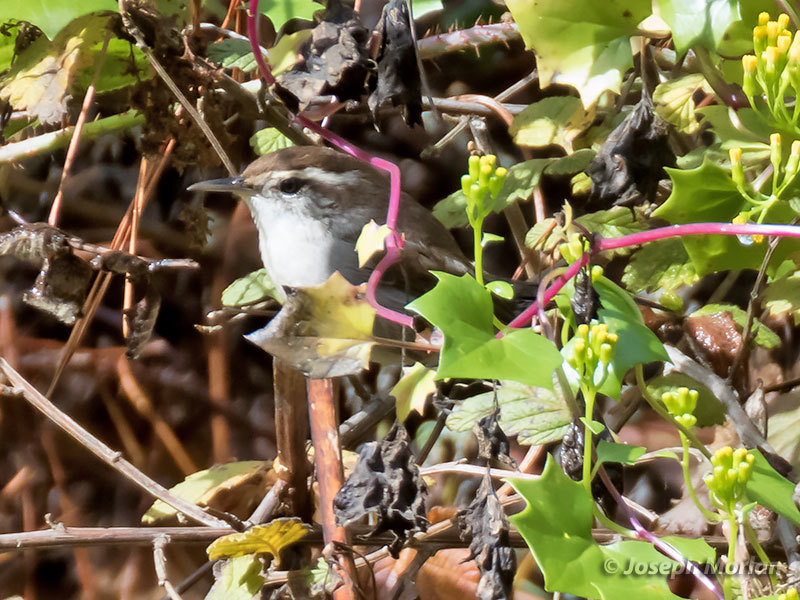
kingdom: Animalia
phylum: Chordata
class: Aves
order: Passeriformes
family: Troglodytidae
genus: Thryomanes
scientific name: Thryomanes bewickii
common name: Bewick's wren
